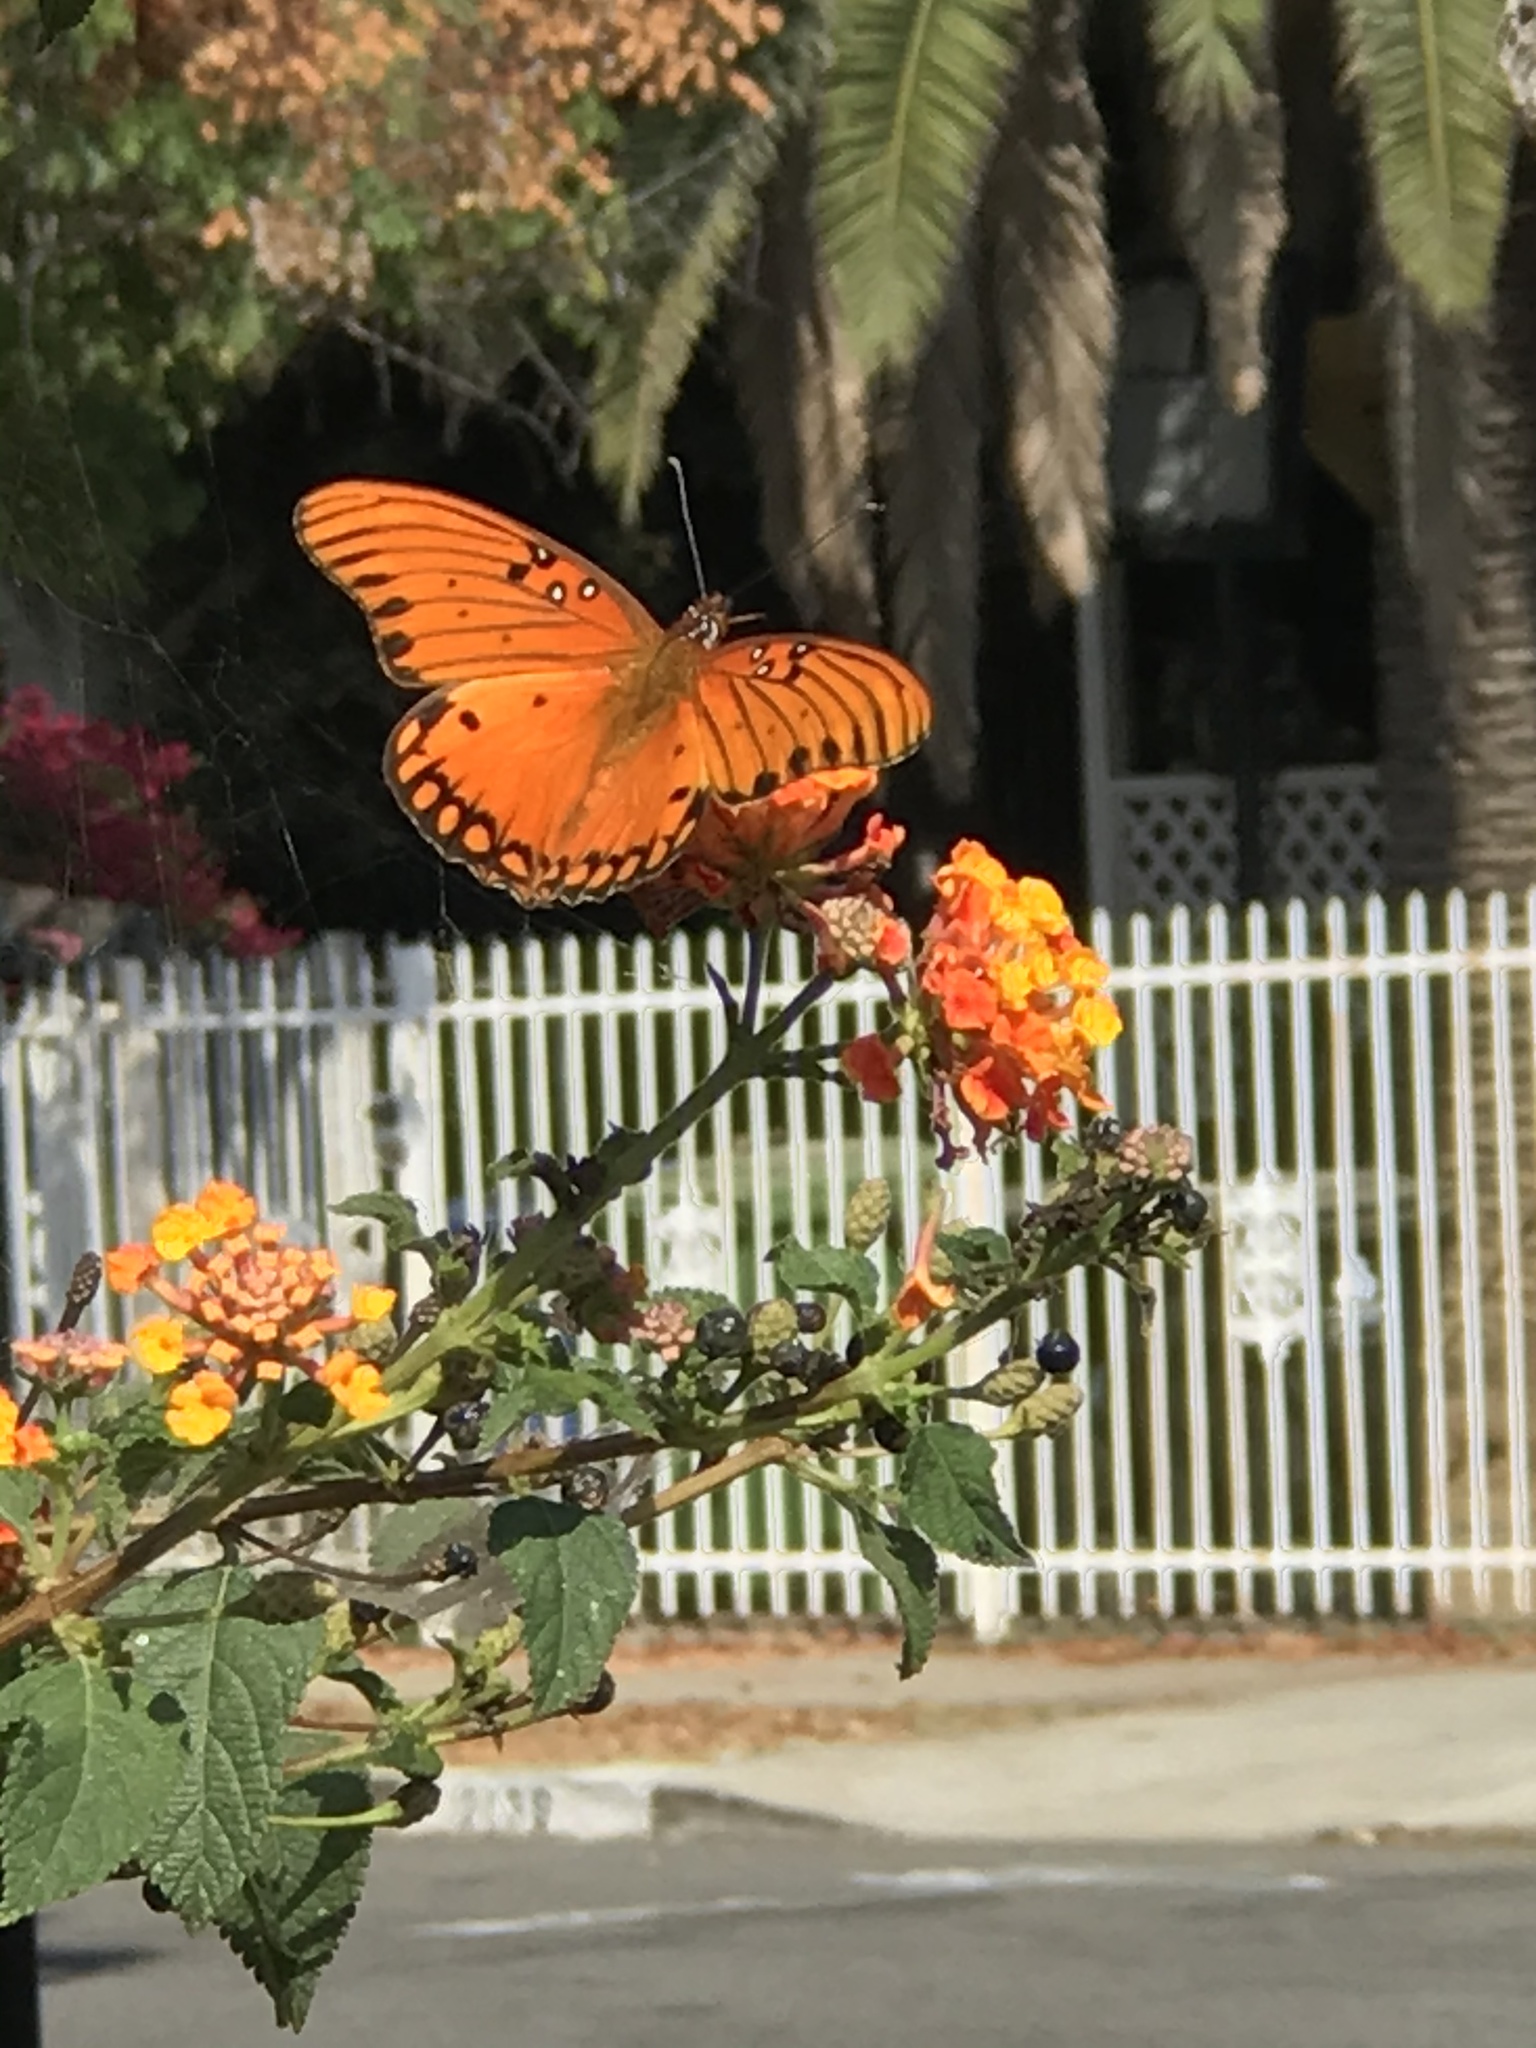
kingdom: Animalia
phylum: Arthropoda
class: Insecta
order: Lepidoptera
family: Nymphalidae
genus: Dione
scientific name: Dione vanillae
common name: Gulf fritillary
